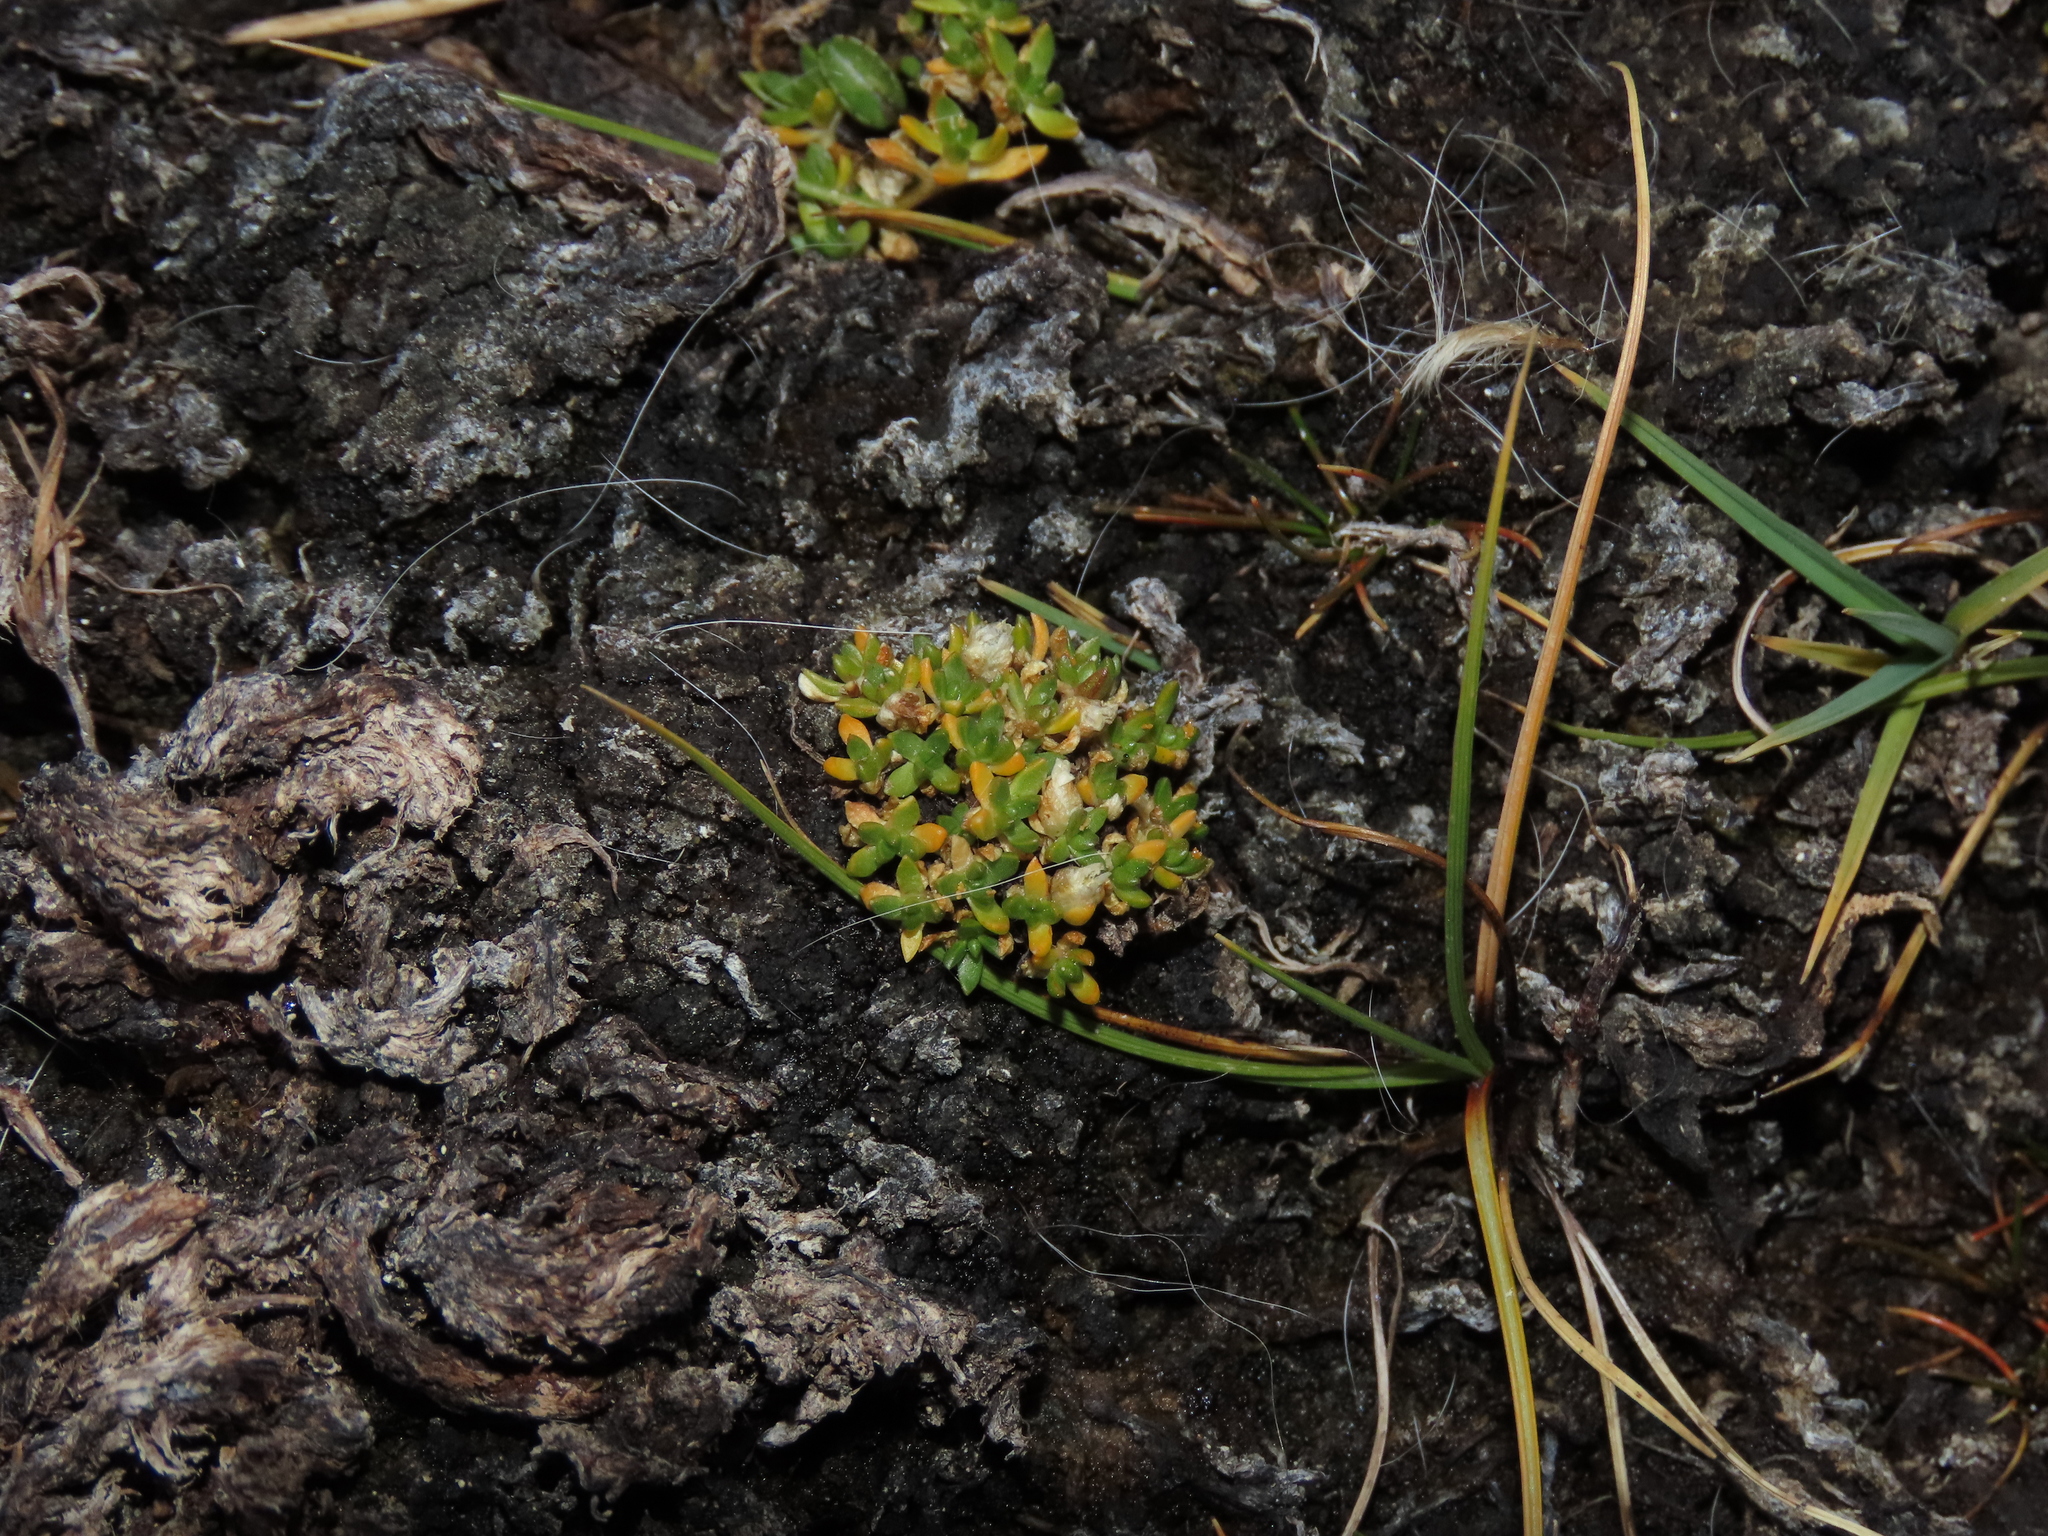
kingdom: Plantae
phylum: Tracheophyta
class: Magnoliopsida
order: Caryophyllales
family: Caryophyllaceae
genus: Arenaria
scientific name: Arenaria rivularis
